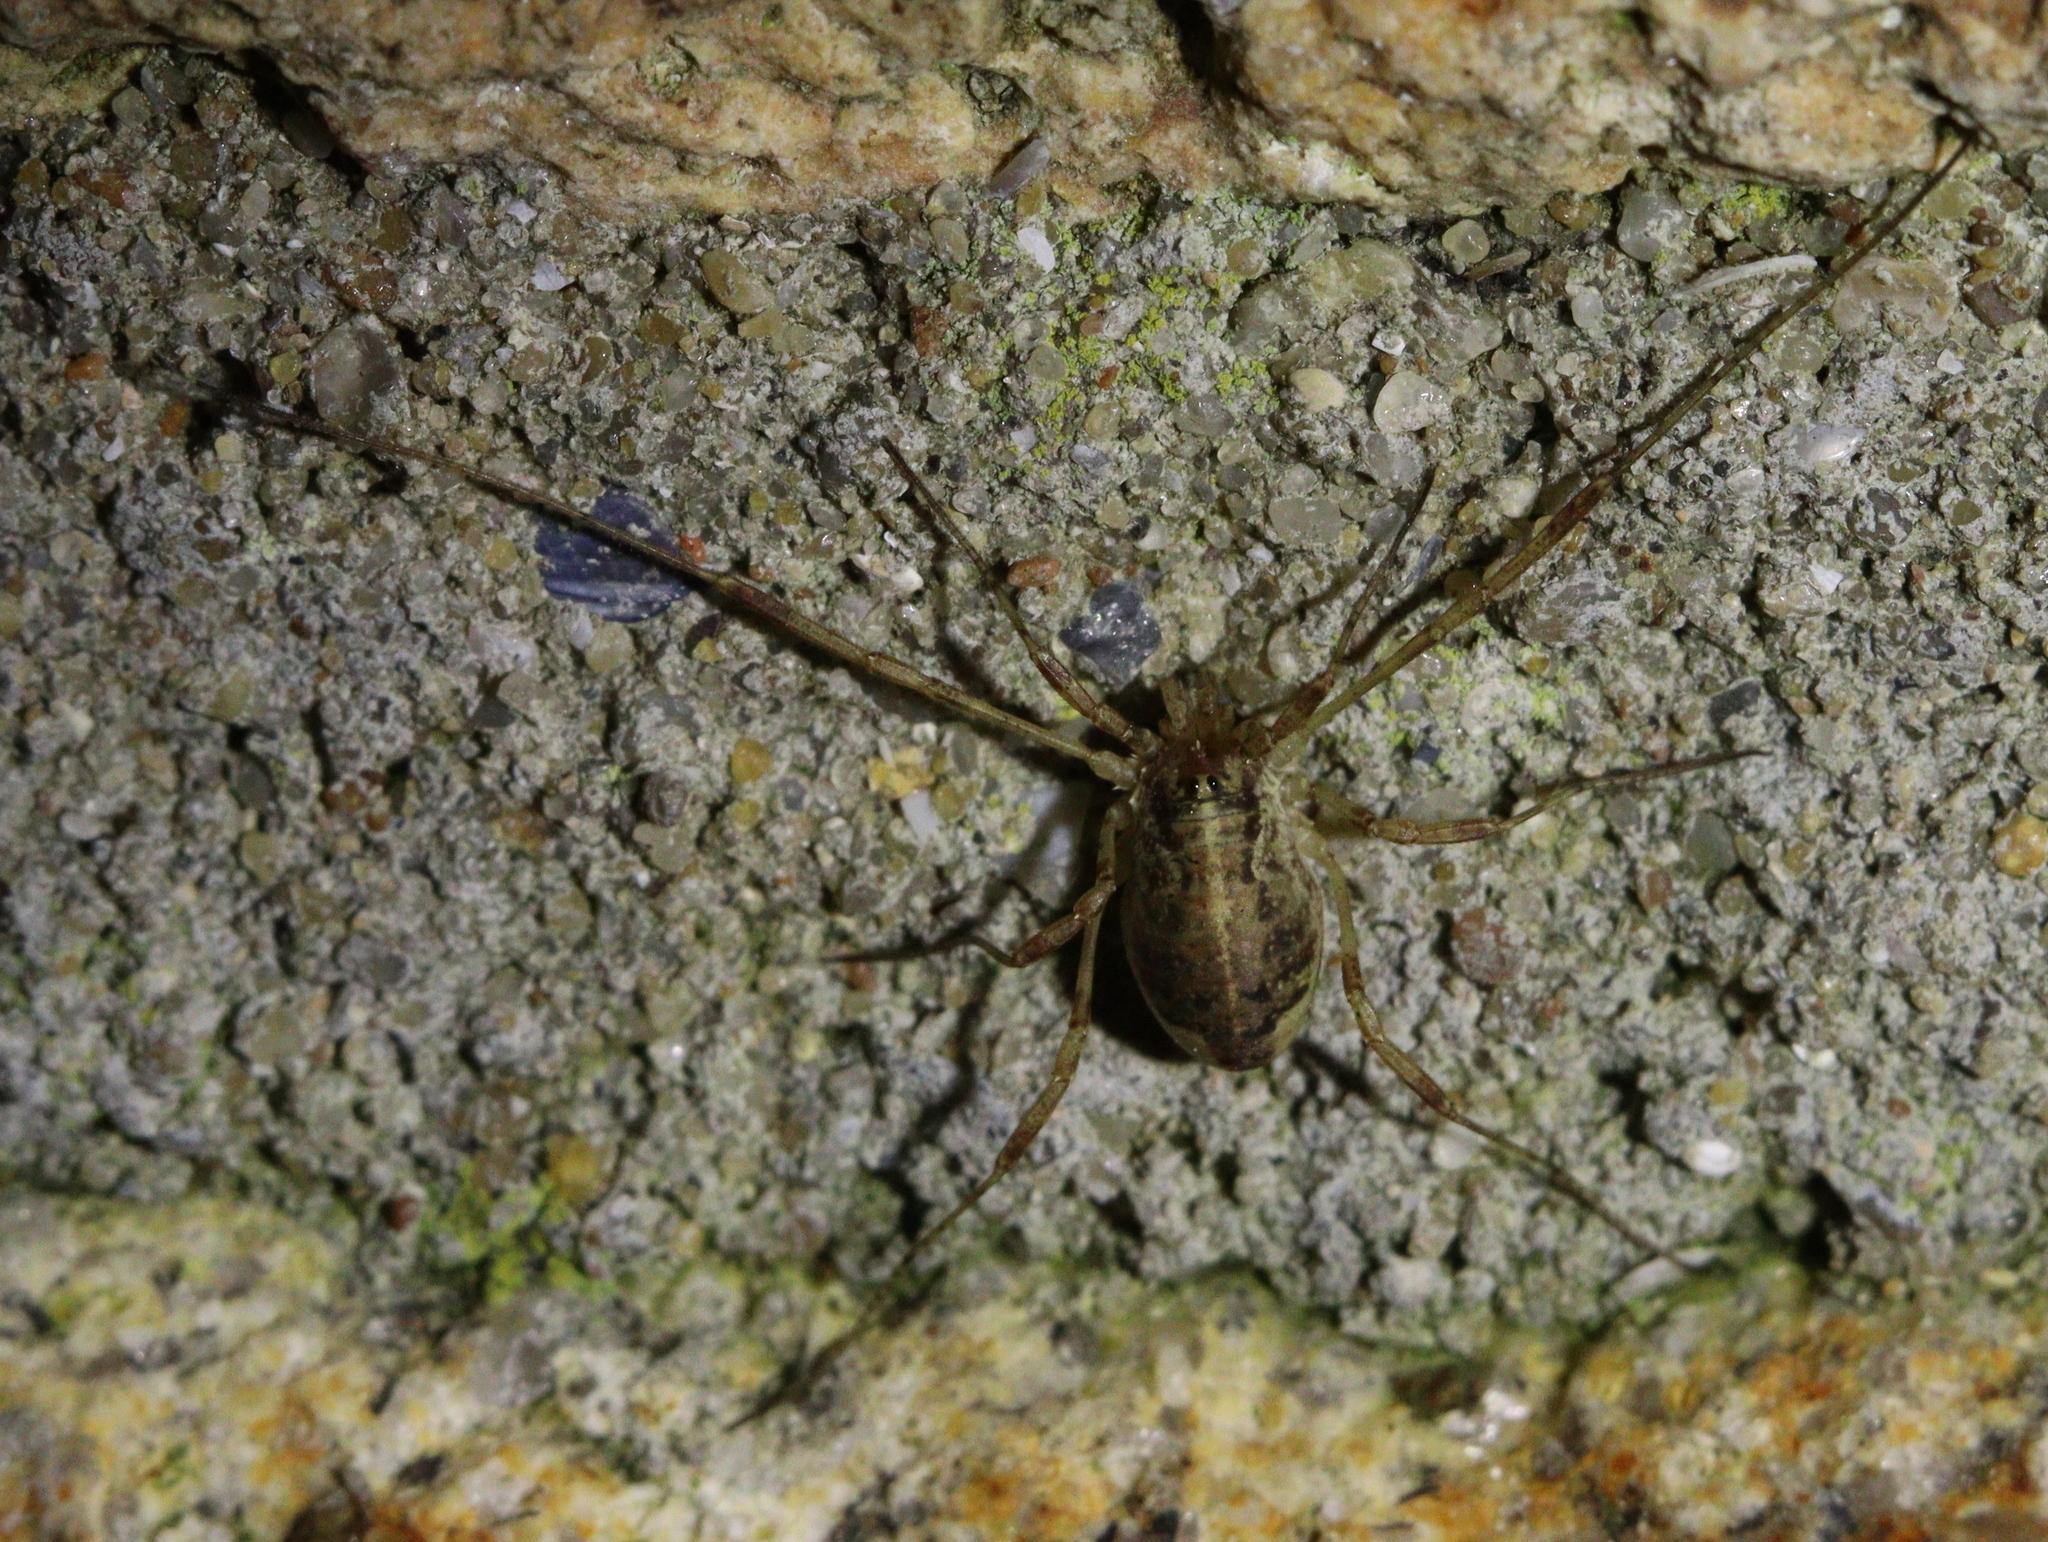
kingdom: Animalia
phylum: Arthropoda
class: Arachnida
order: Opiliones
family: Phalangiidae
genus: Paroligolophus
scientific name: Paroligolophus agrestis
